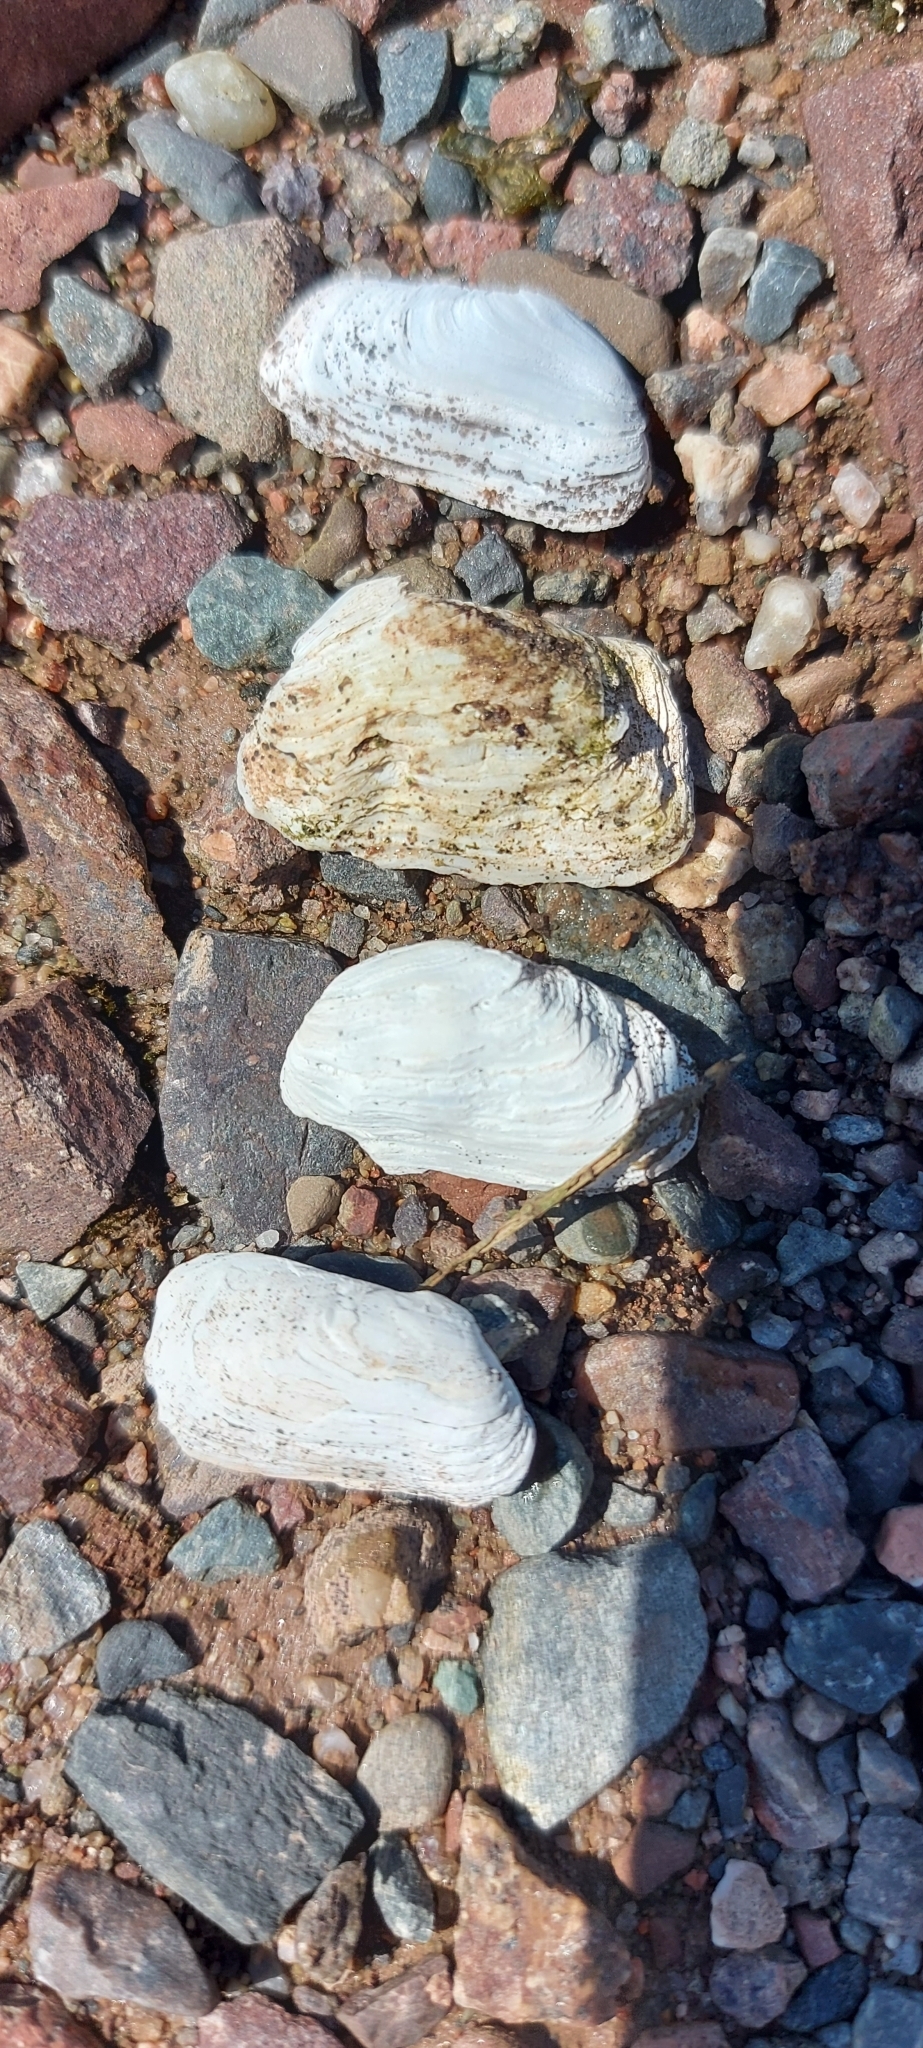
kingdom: Animalia
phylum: Mollusca
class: Bivalvia
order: Adapedonta
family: Hiatellidae
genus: Hiatella
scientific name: Hiatella arctica
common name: Arctic hiatella
